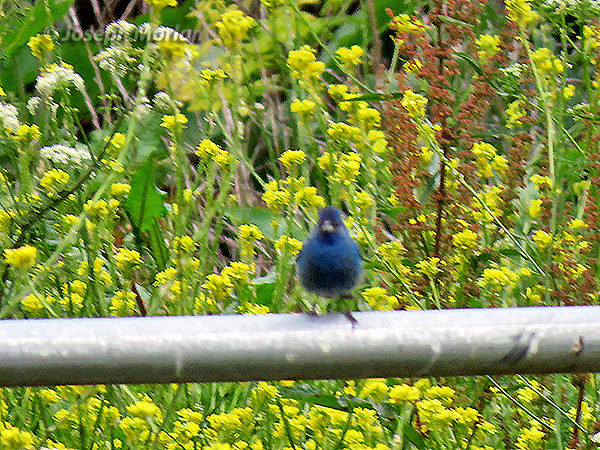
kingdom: Animalia
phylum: Chordata
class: Aves
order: Passeriformes
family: Cardinalidae
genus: Passerina
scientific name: Passerina cyanea
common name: Indigo bunting
